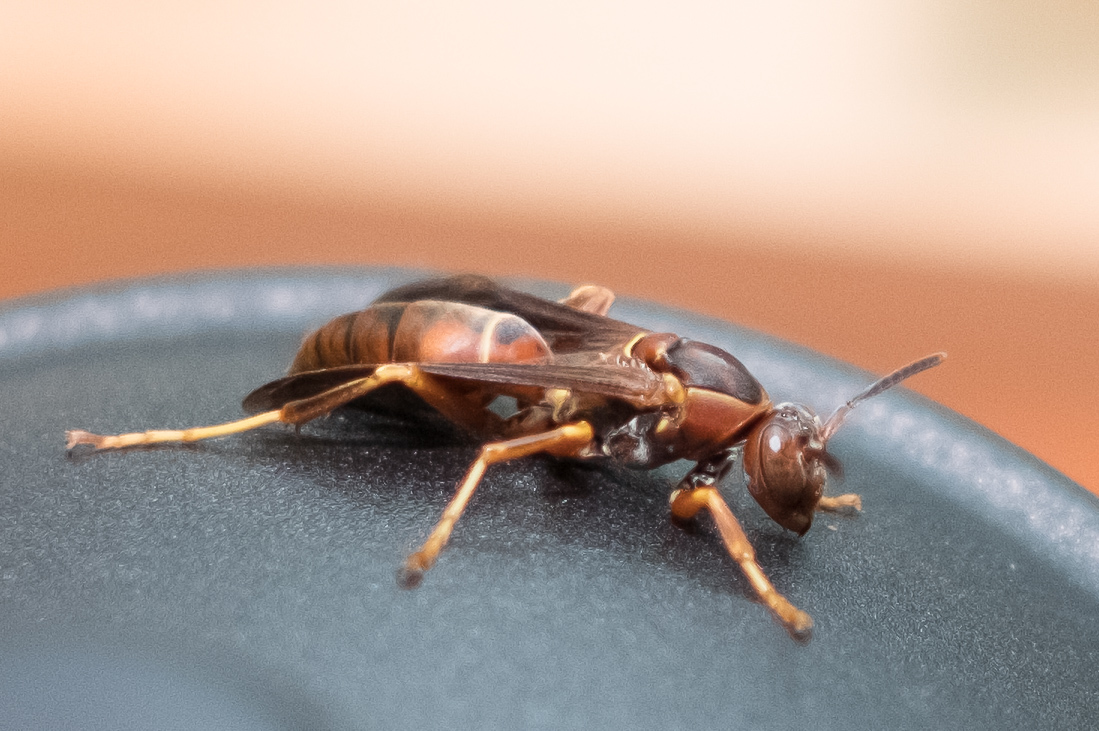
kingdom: Animalia
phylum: Arthropoda
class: Insecta
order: Hymenoptera
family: Eumenidae
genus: Polistes
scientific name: Polistes fuscatus
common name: Dark paper wasp
